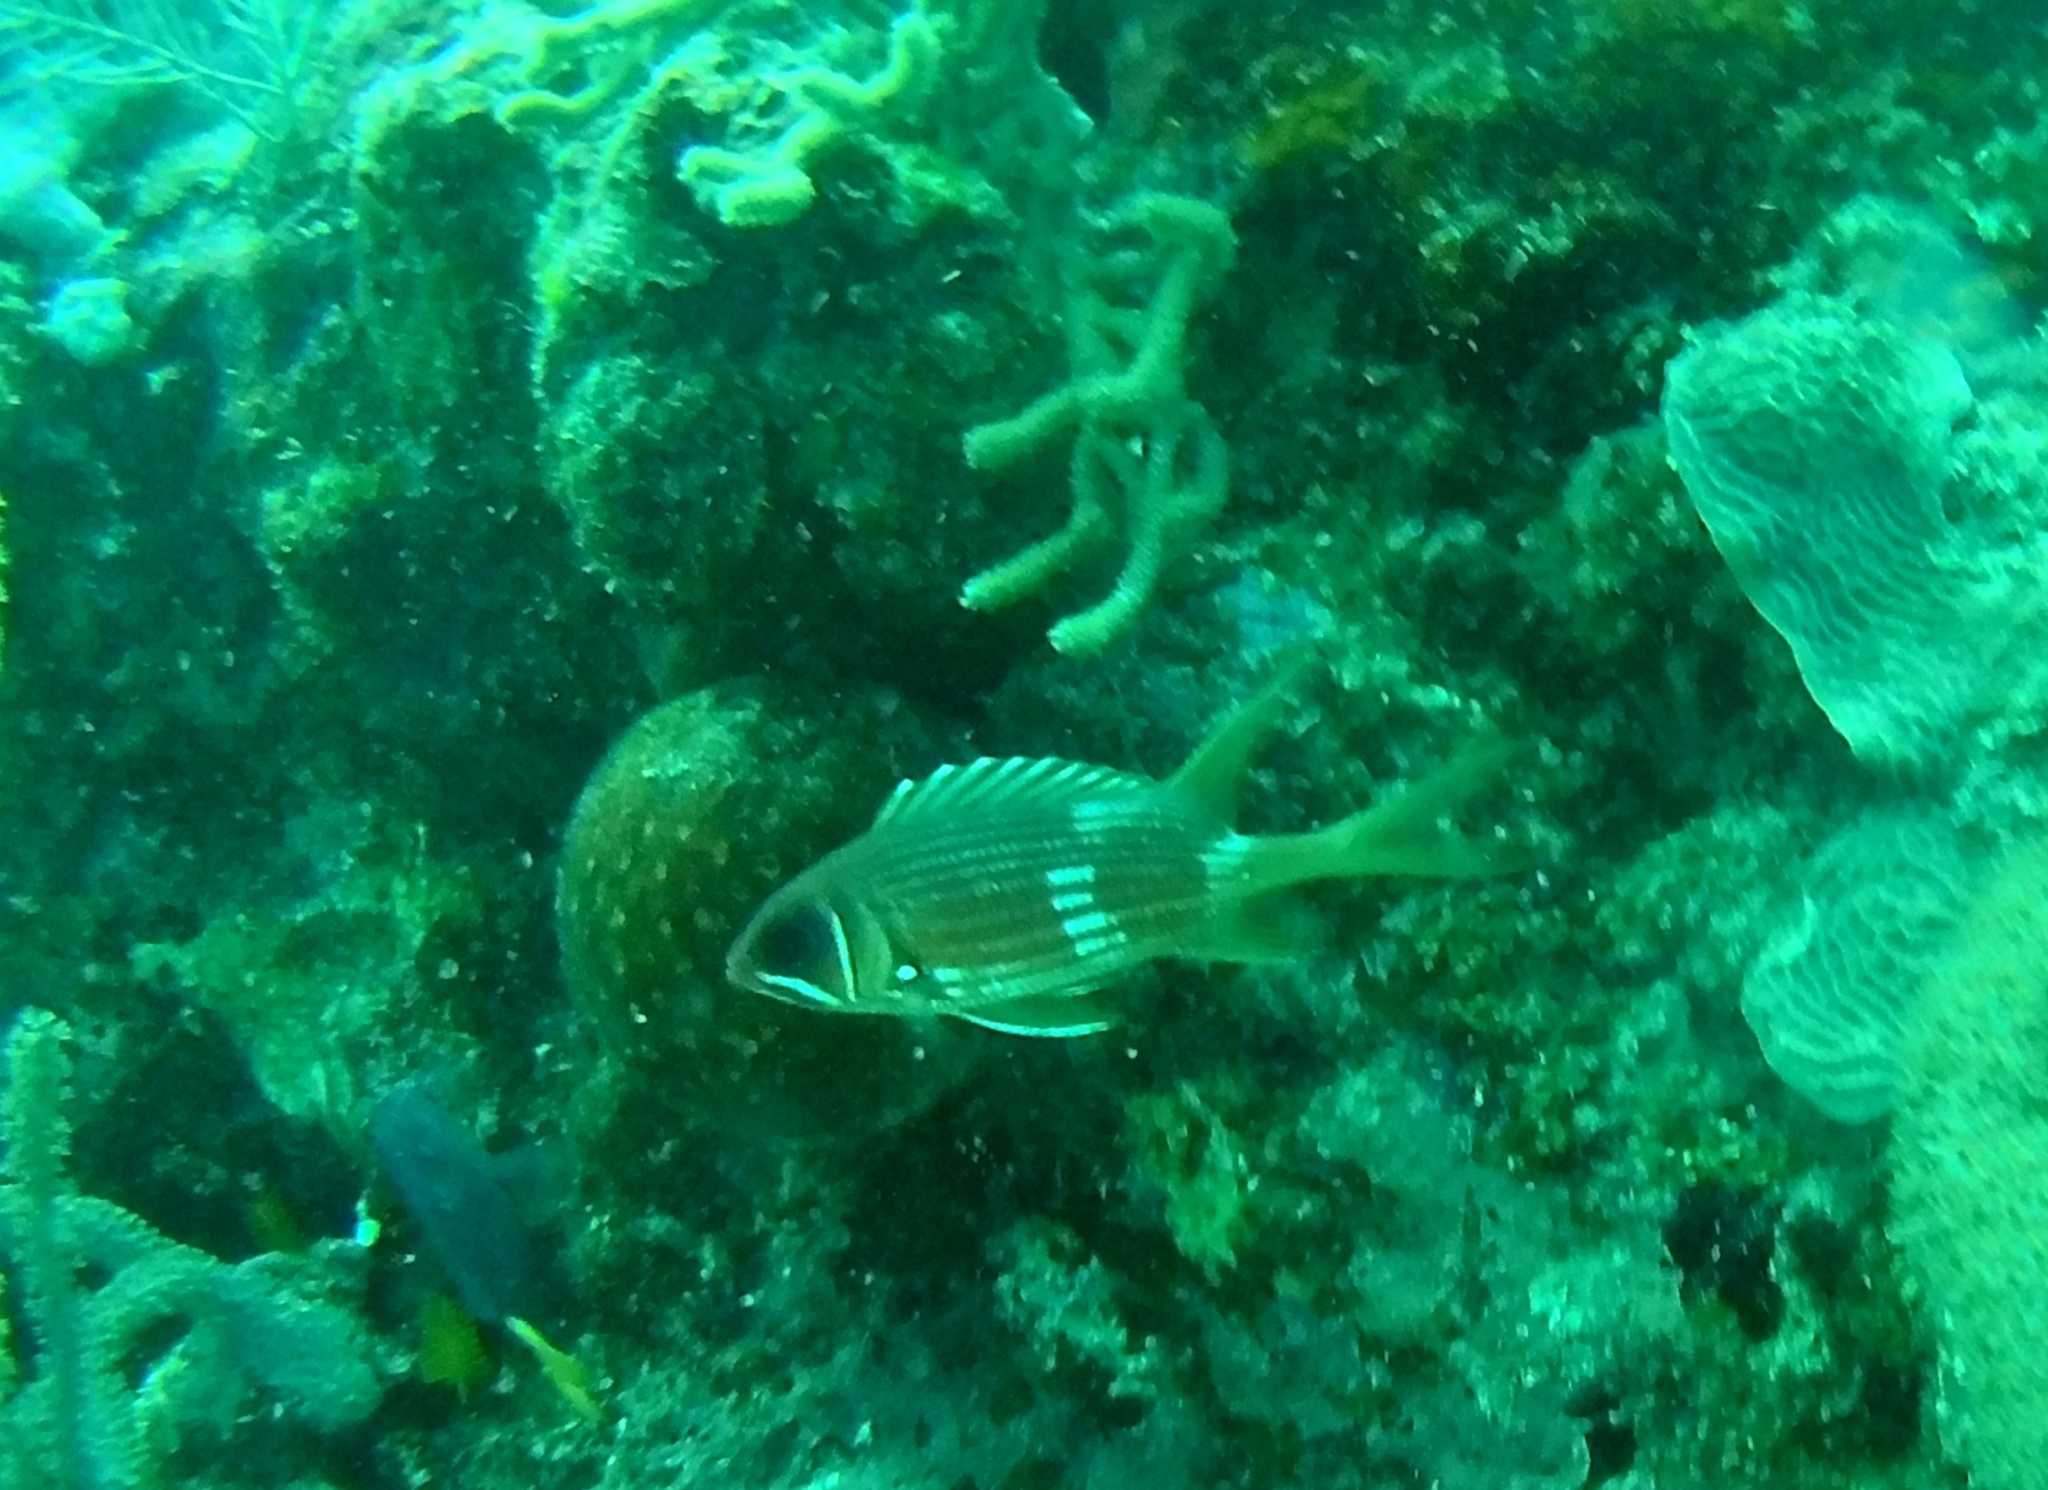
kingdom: Animalia
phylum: Chordata
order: Beryciformes
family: Holocentridae
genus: Holocentrus
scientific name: Holocentrus rufus
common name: Longspine squirrelfish
